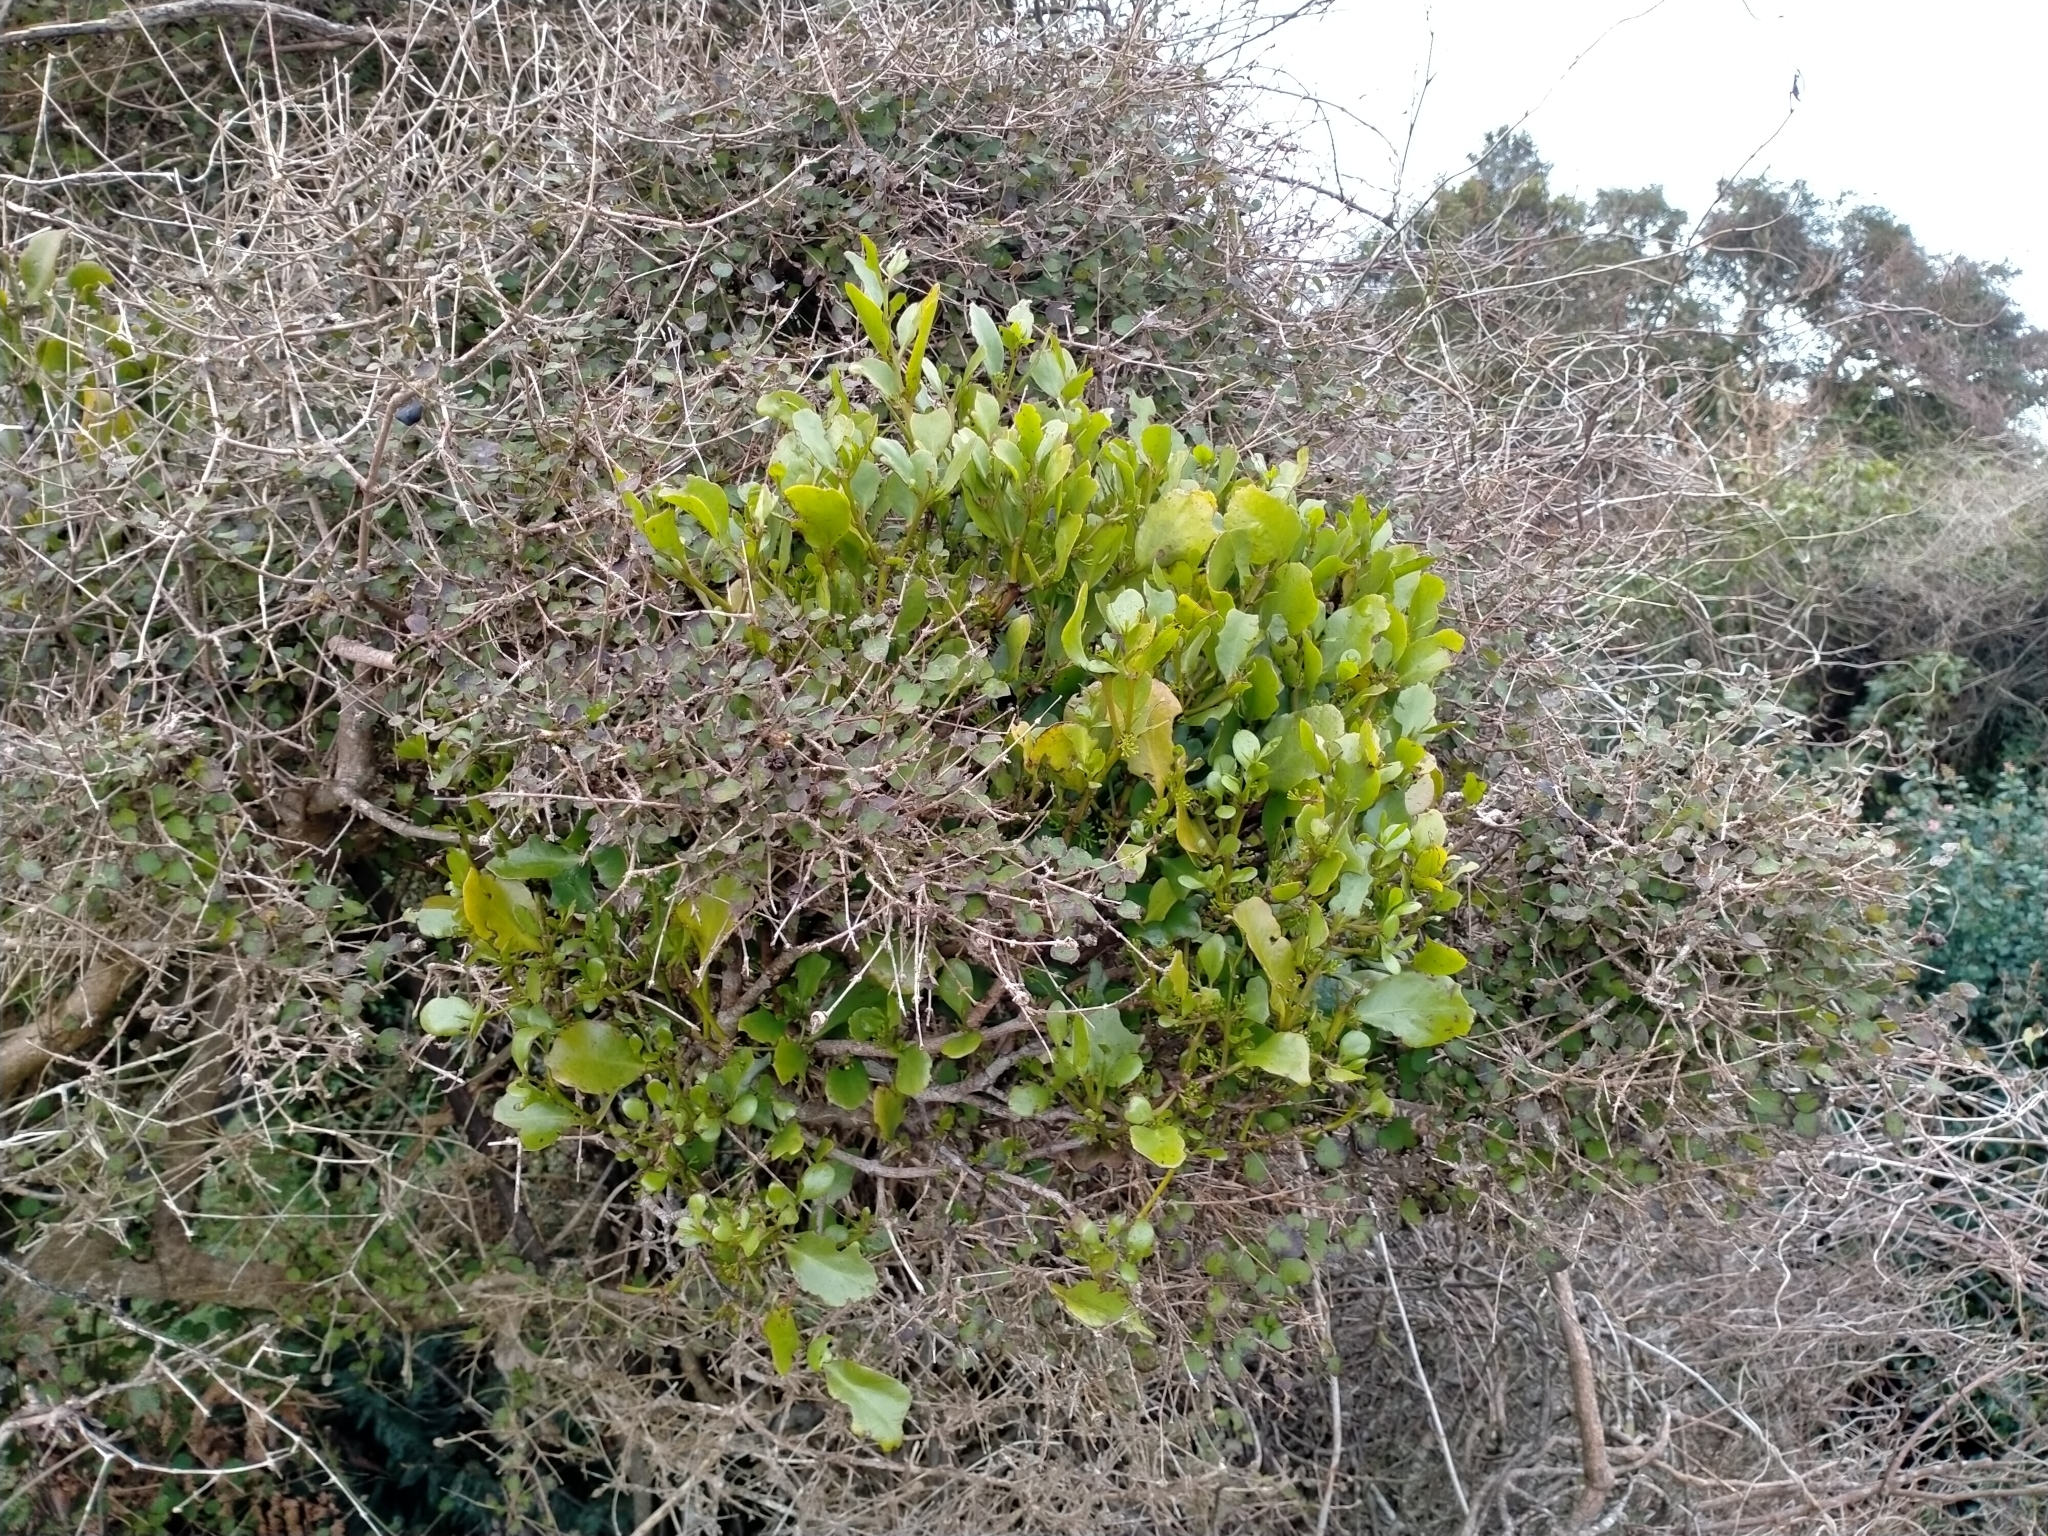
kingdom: Plantae
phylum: Tracheophyta
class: Magnoliopsida
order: Santalales
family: Loranthaceae
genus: Ileostylus
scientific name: Ileostylus micranthus
